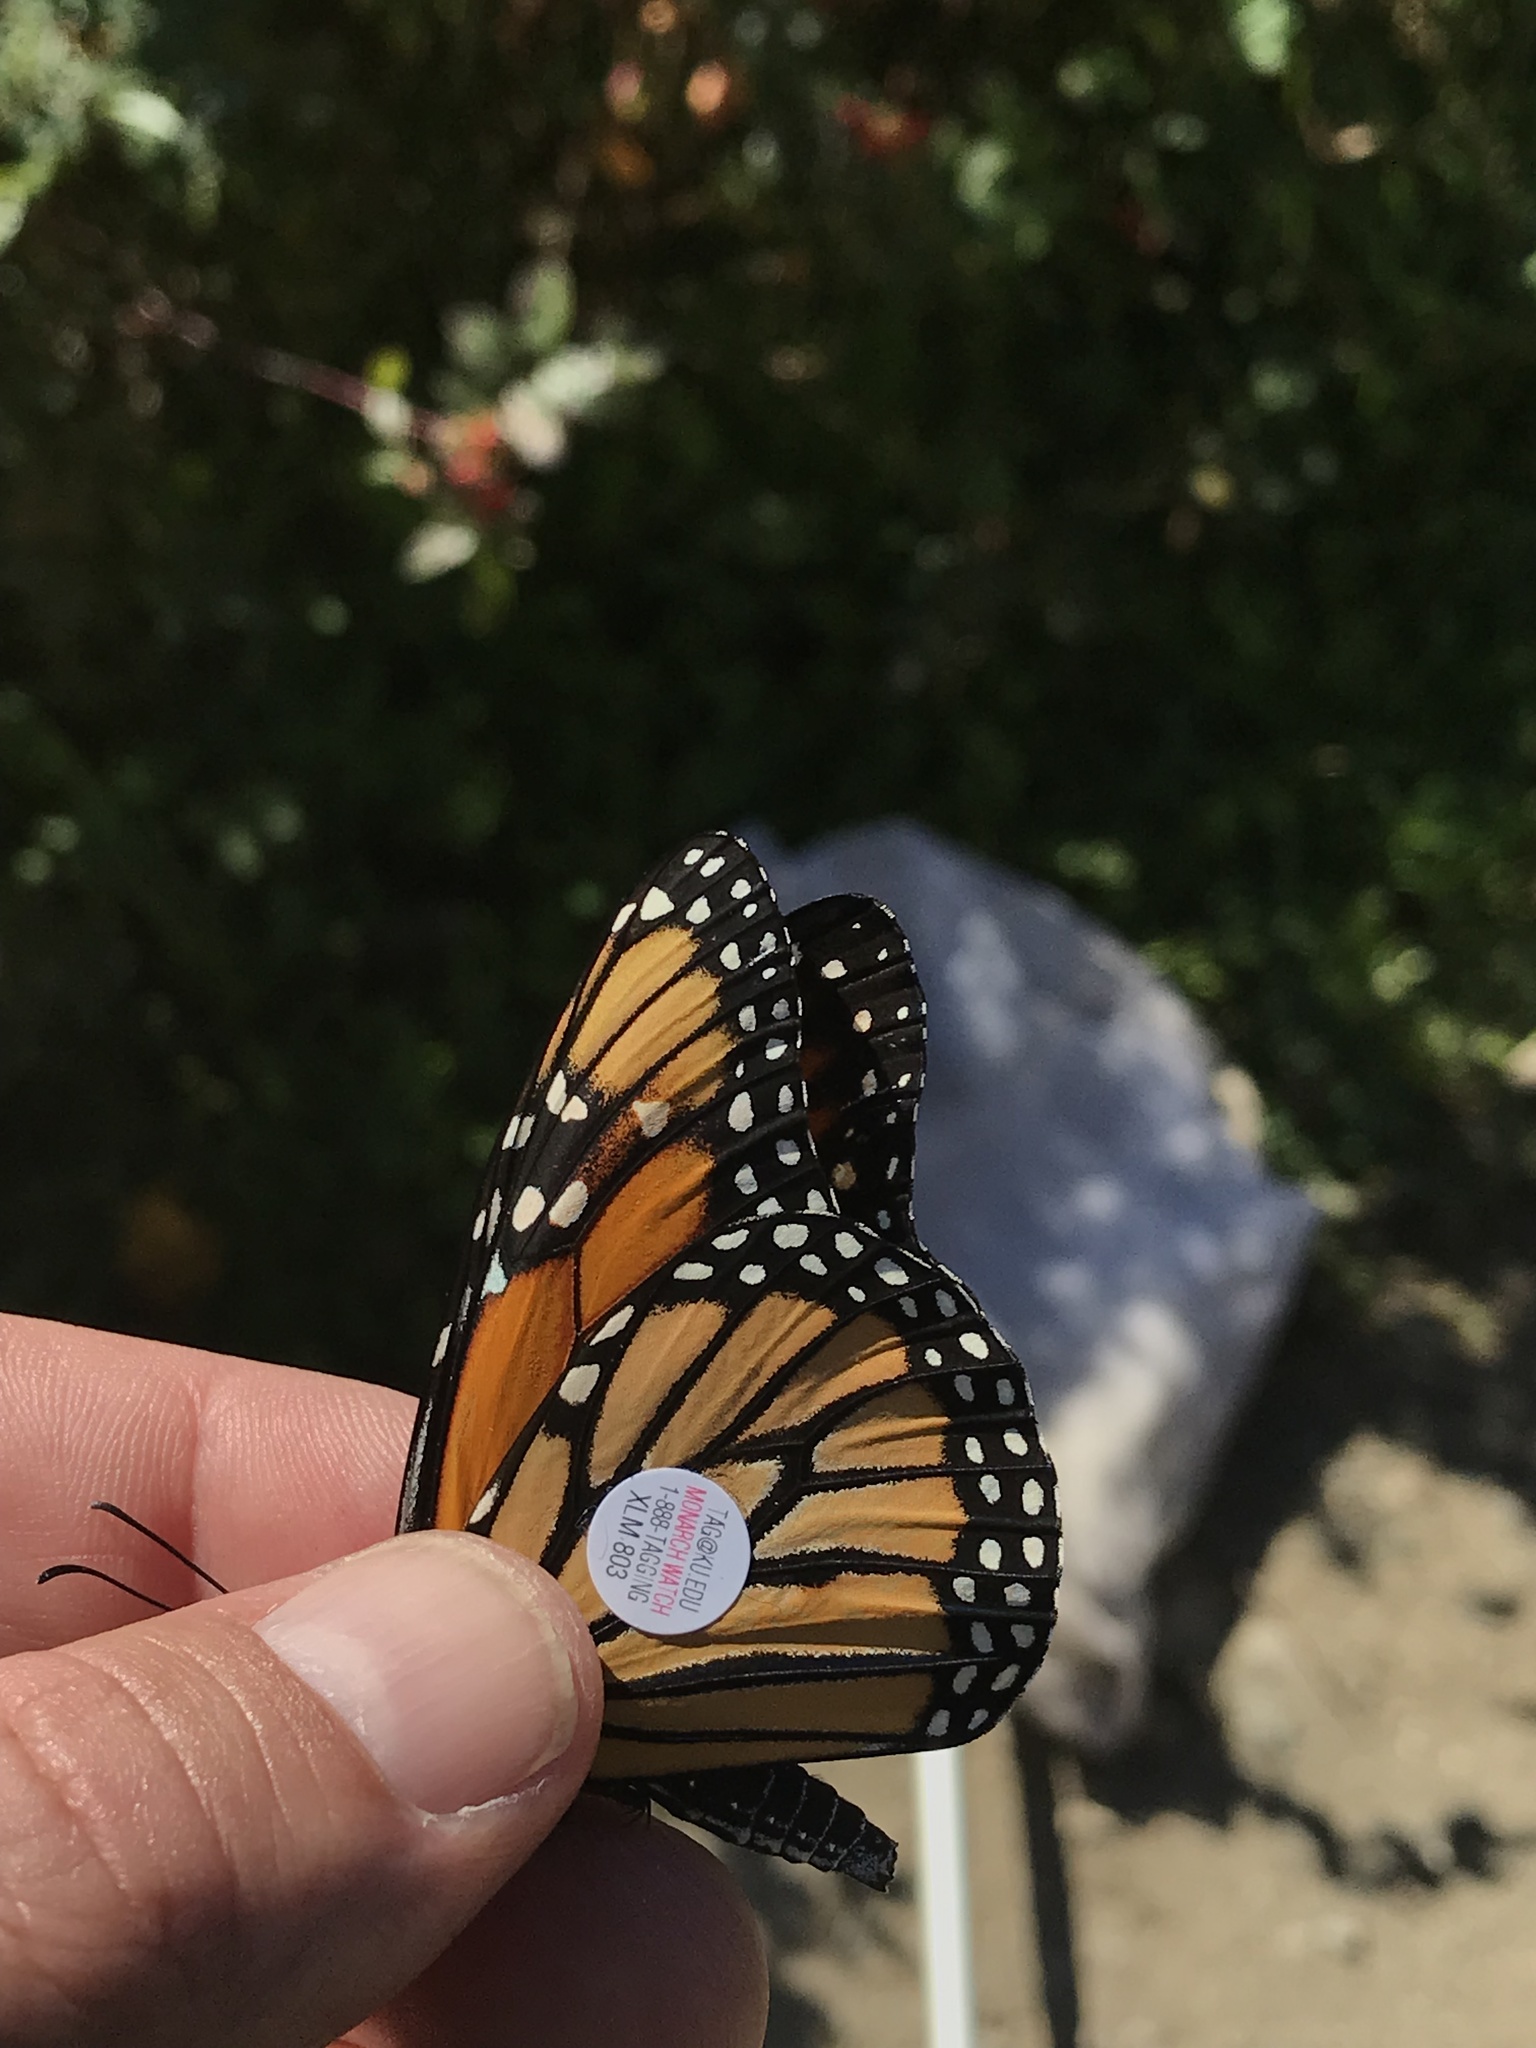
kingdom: Animalia
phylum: Arthropoda
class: Insecta
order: Lepidoptera
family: Nymphalidae
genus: Danaus
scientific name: Danaus plexippus
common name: Monarch
